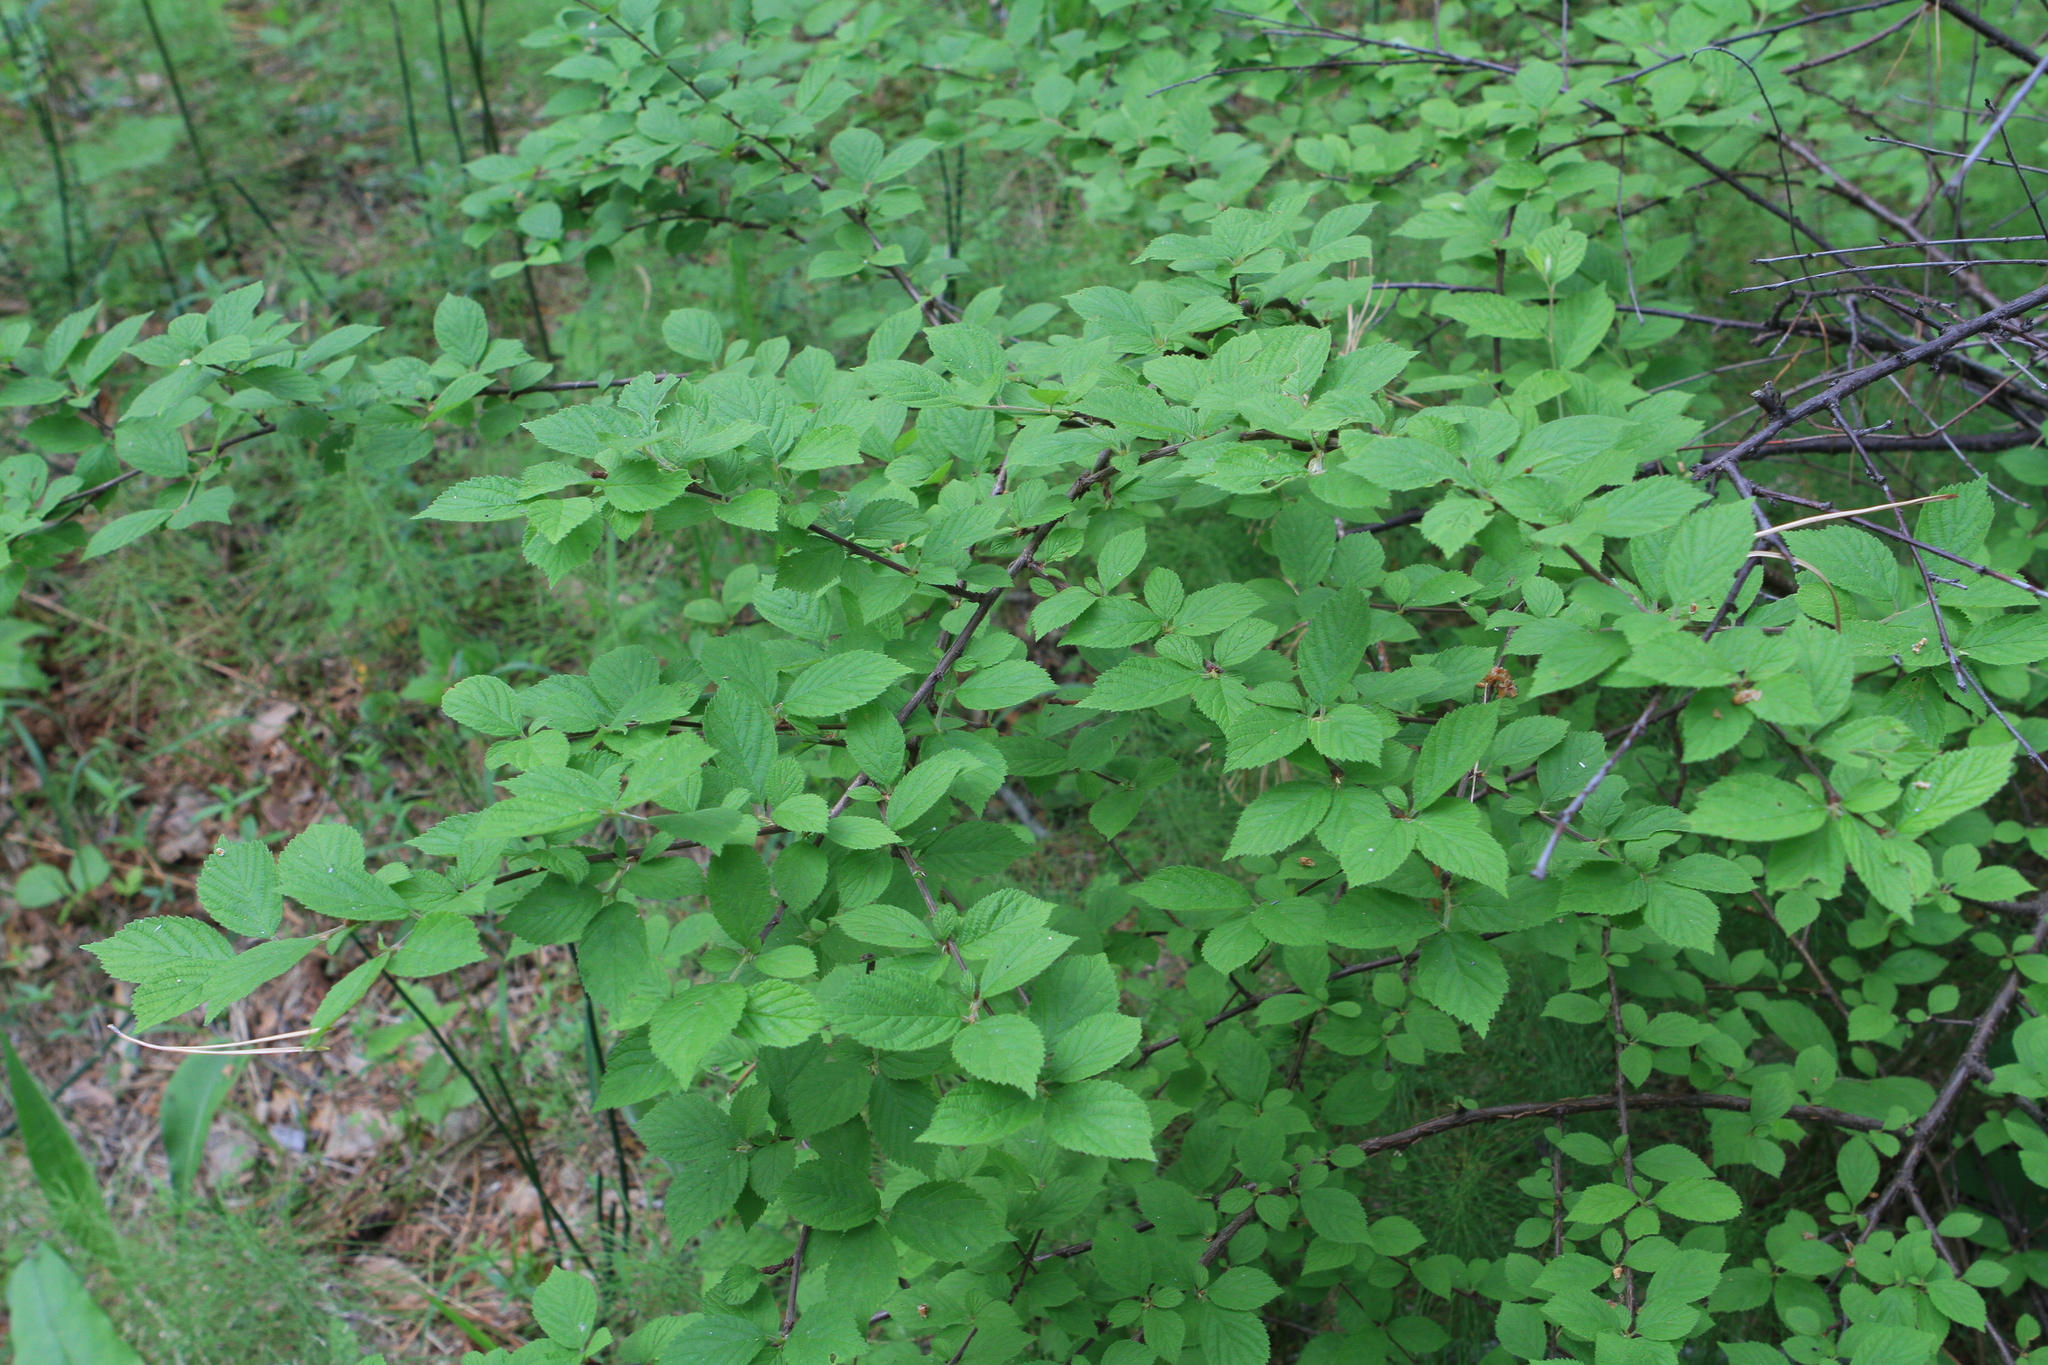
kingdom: Plantae
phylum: Tracheophyta
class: Magnoliopsida
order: Rosales
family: Rosaceae
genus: Prunus
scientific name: Prunus tomentosa
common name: Nanking cherry
